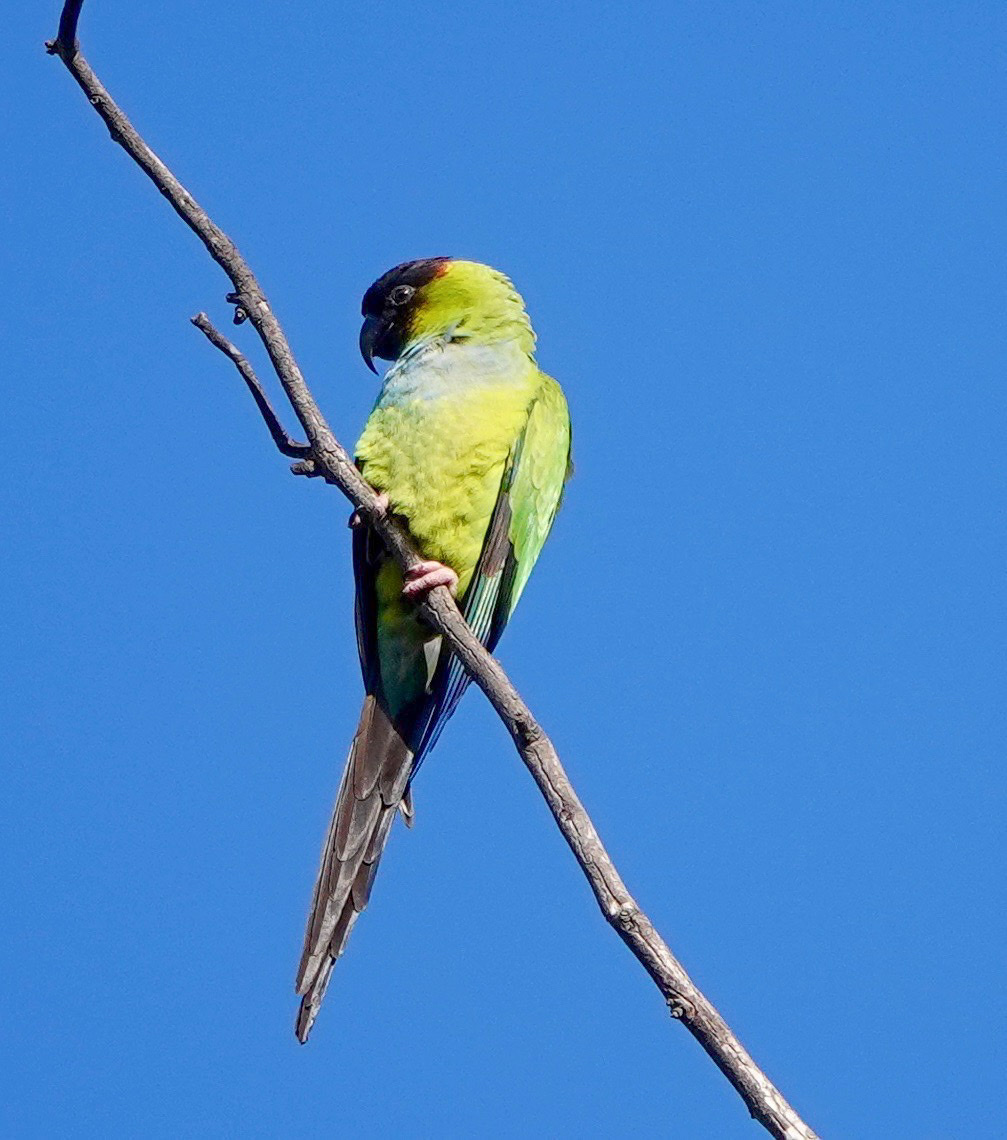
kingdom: Animalia
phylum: Chordata
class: Aves
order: Psittaciformes
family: Psittacidae
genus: Nandayus
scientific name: Nandayus nenday
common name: Nanday parakeet
